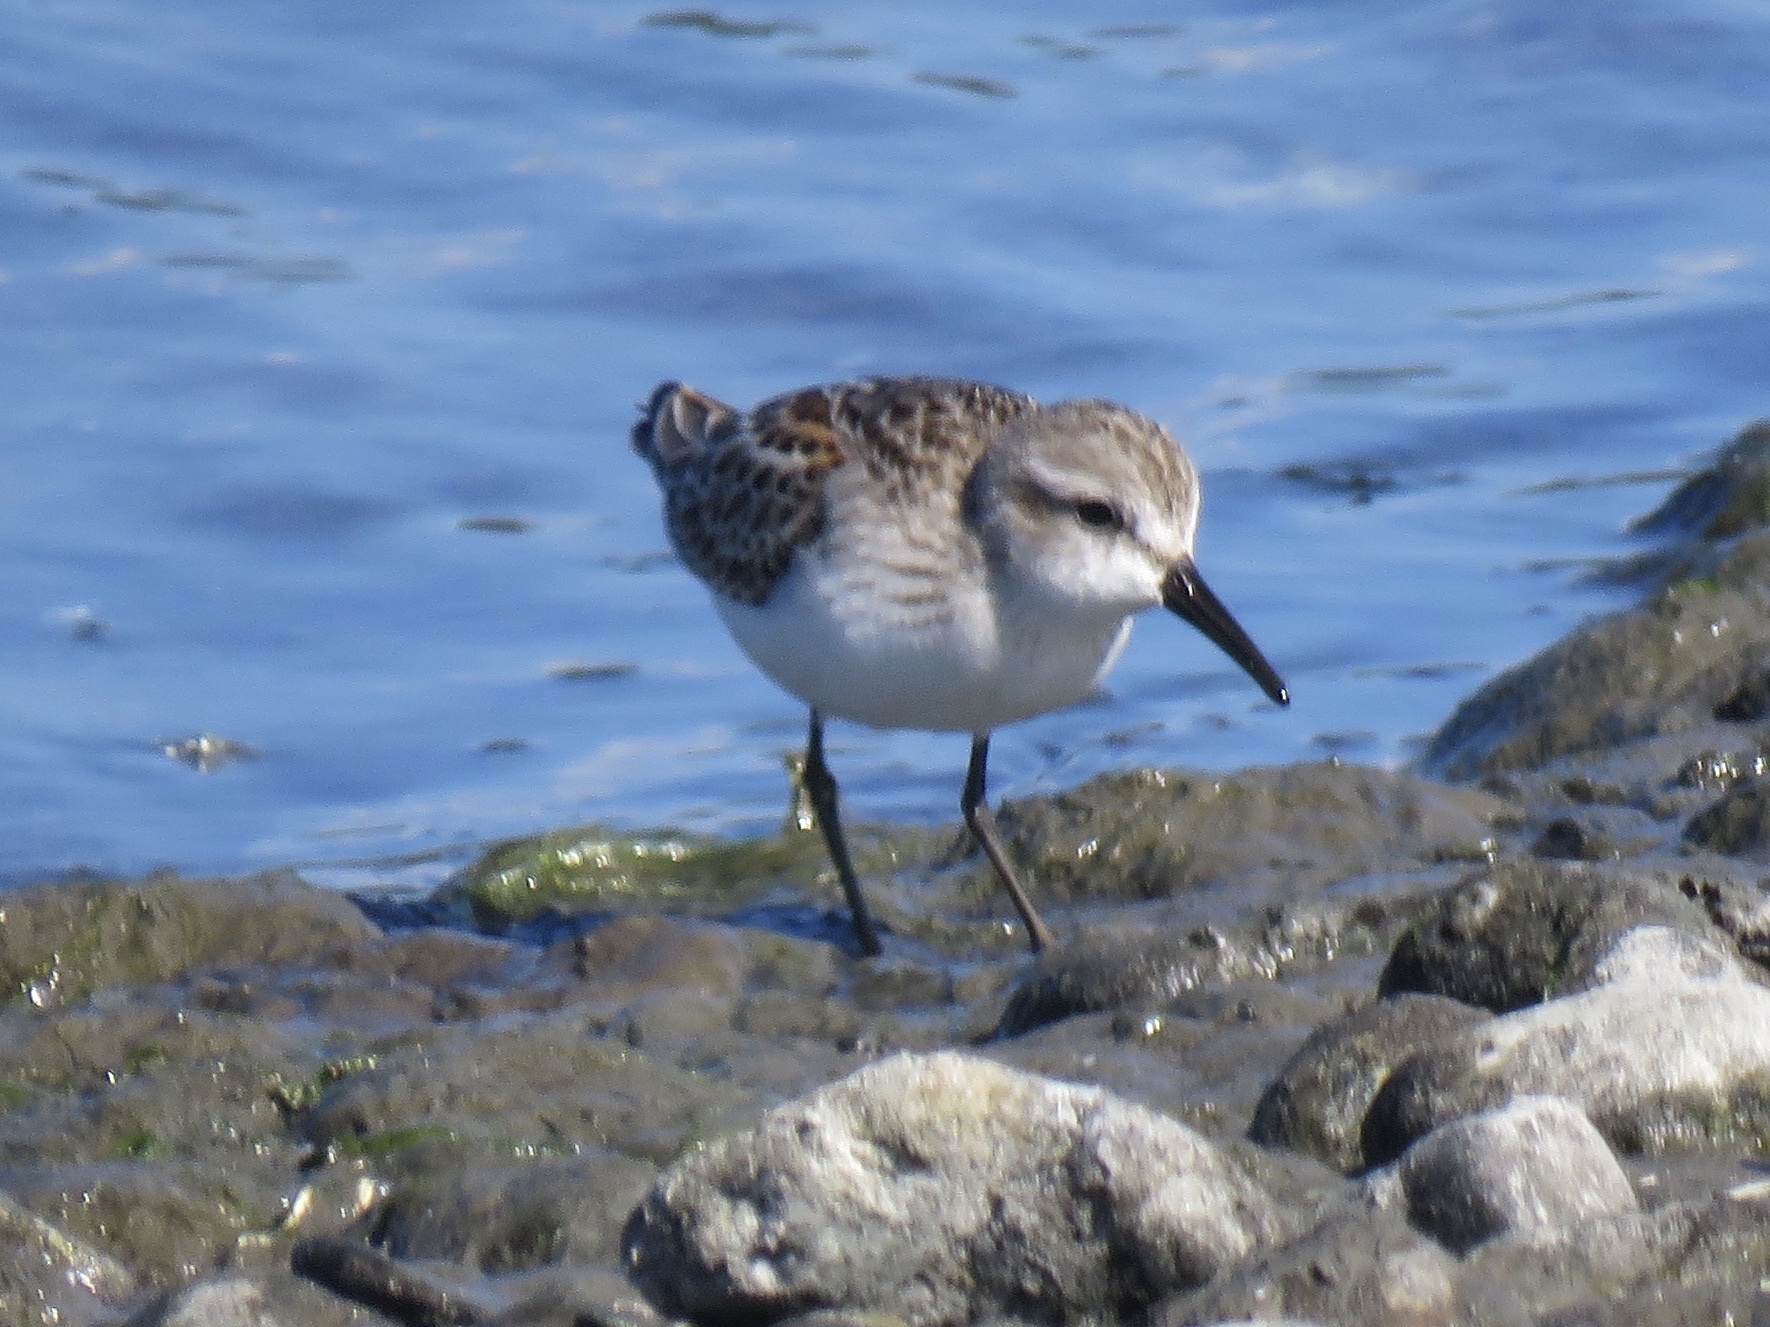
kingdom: Animalia
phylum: Chordata
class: Aves
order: Charadriiformes
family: Scolopacidae
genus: Calidris
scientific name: Calidris mauri
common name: Western sandpiper
